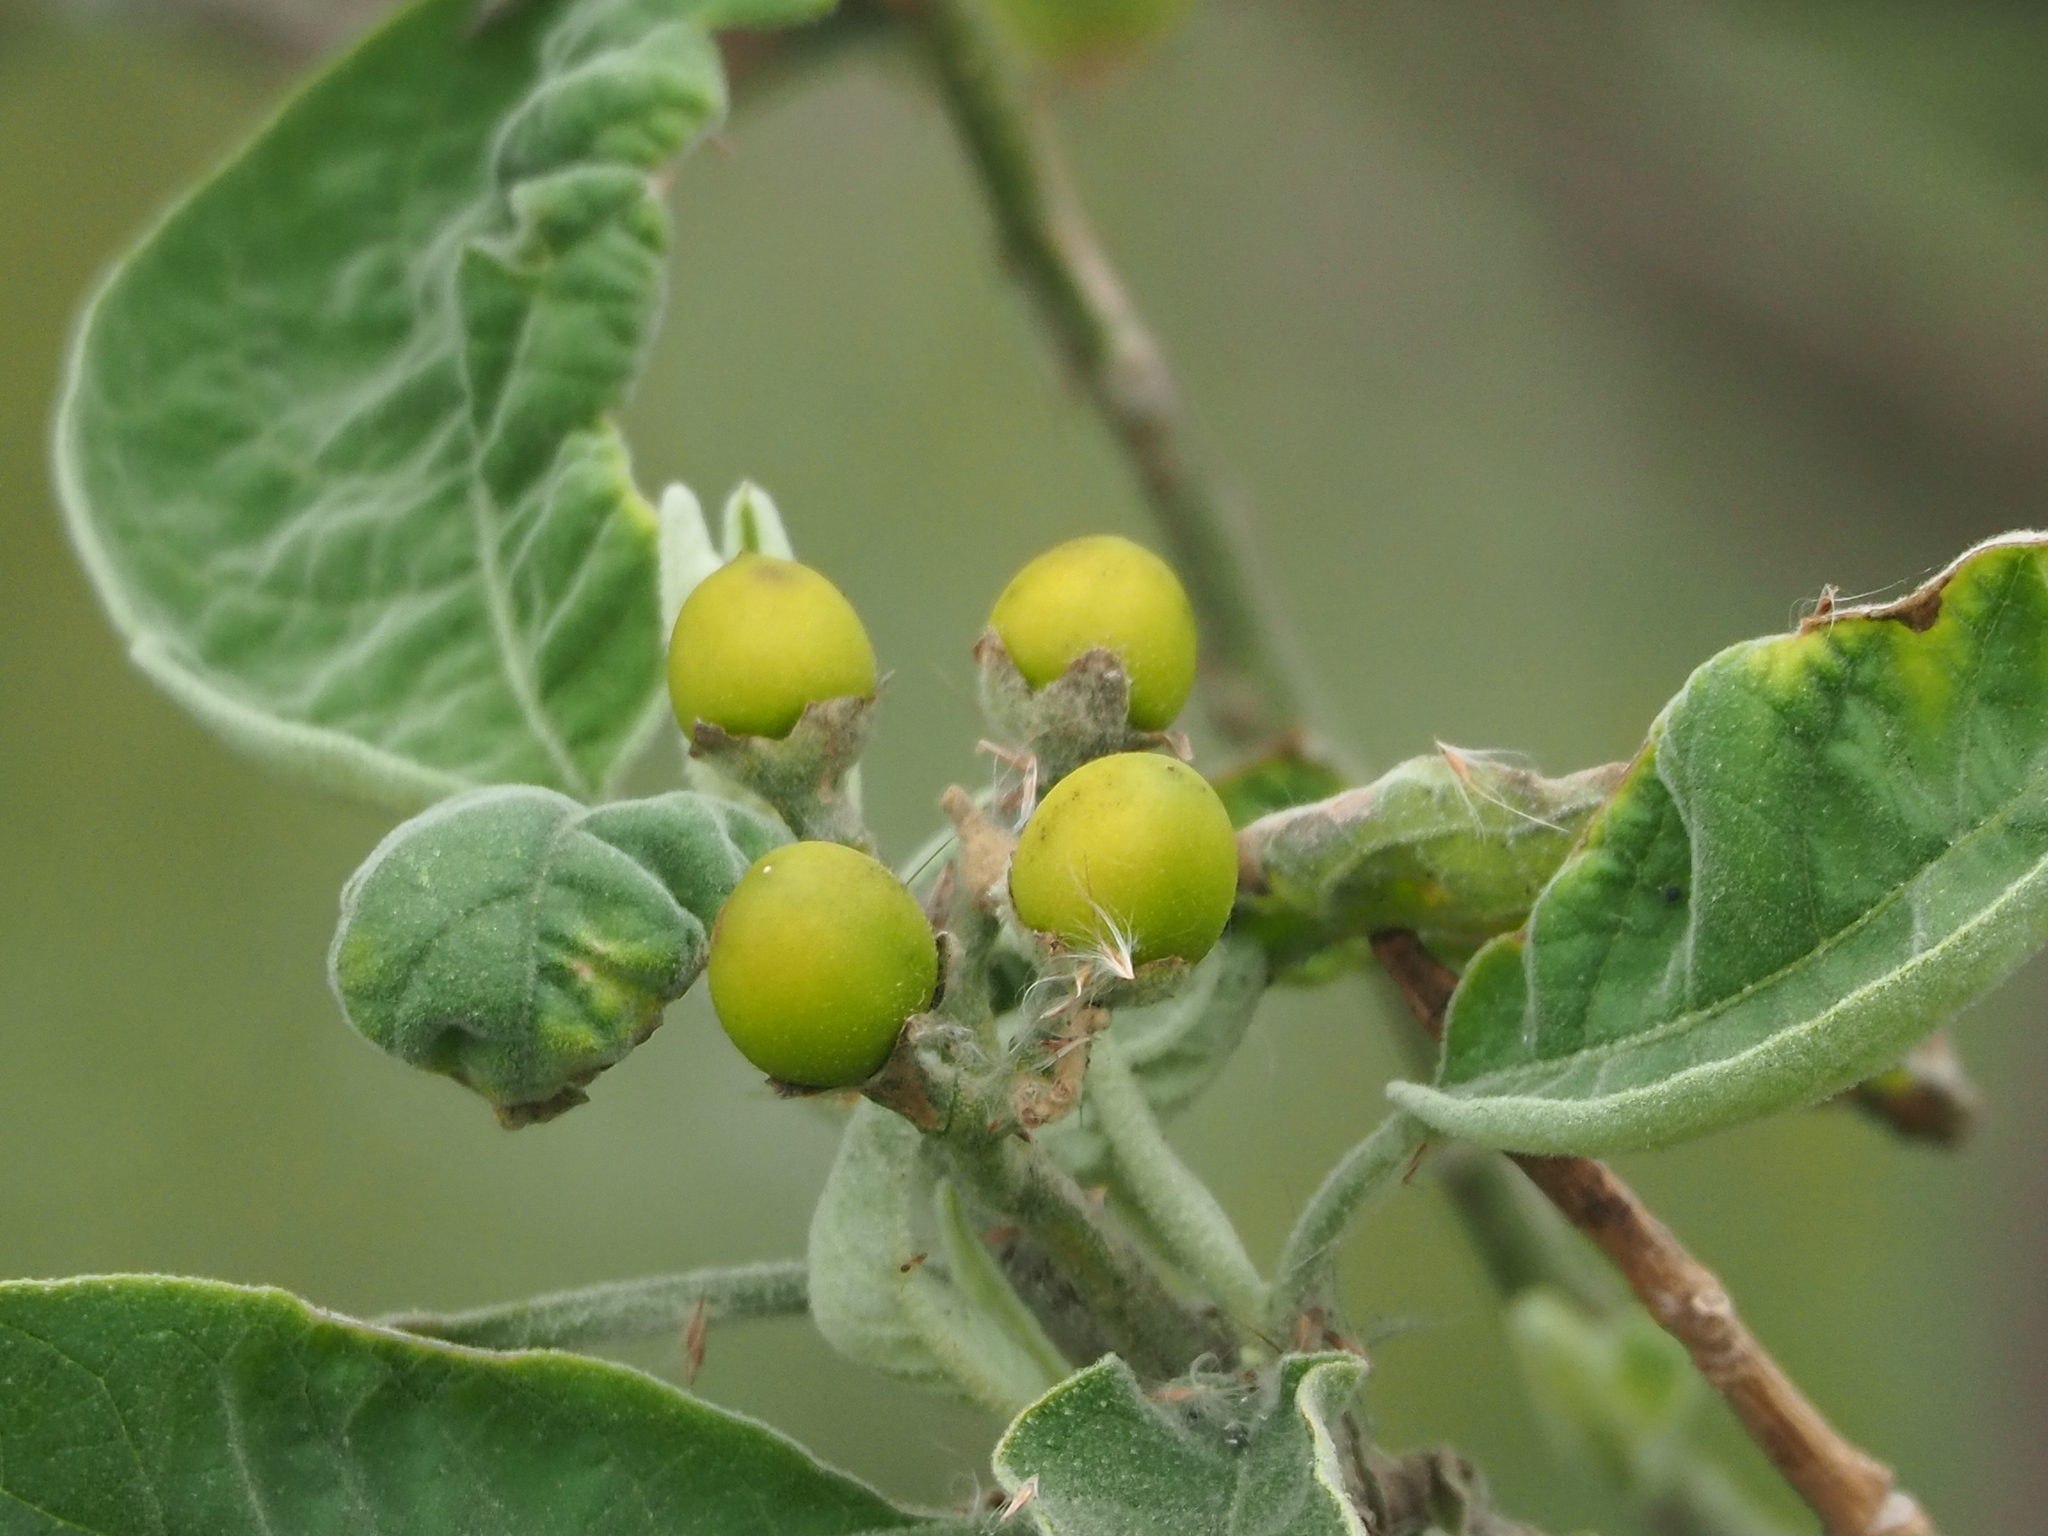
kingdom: Plantae
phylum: Tracheophyta
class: Magnoliopsida
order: Solanales
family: Solanaceae
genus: Solanum
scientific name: Solanum erianthum
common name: Tobacco-tree
